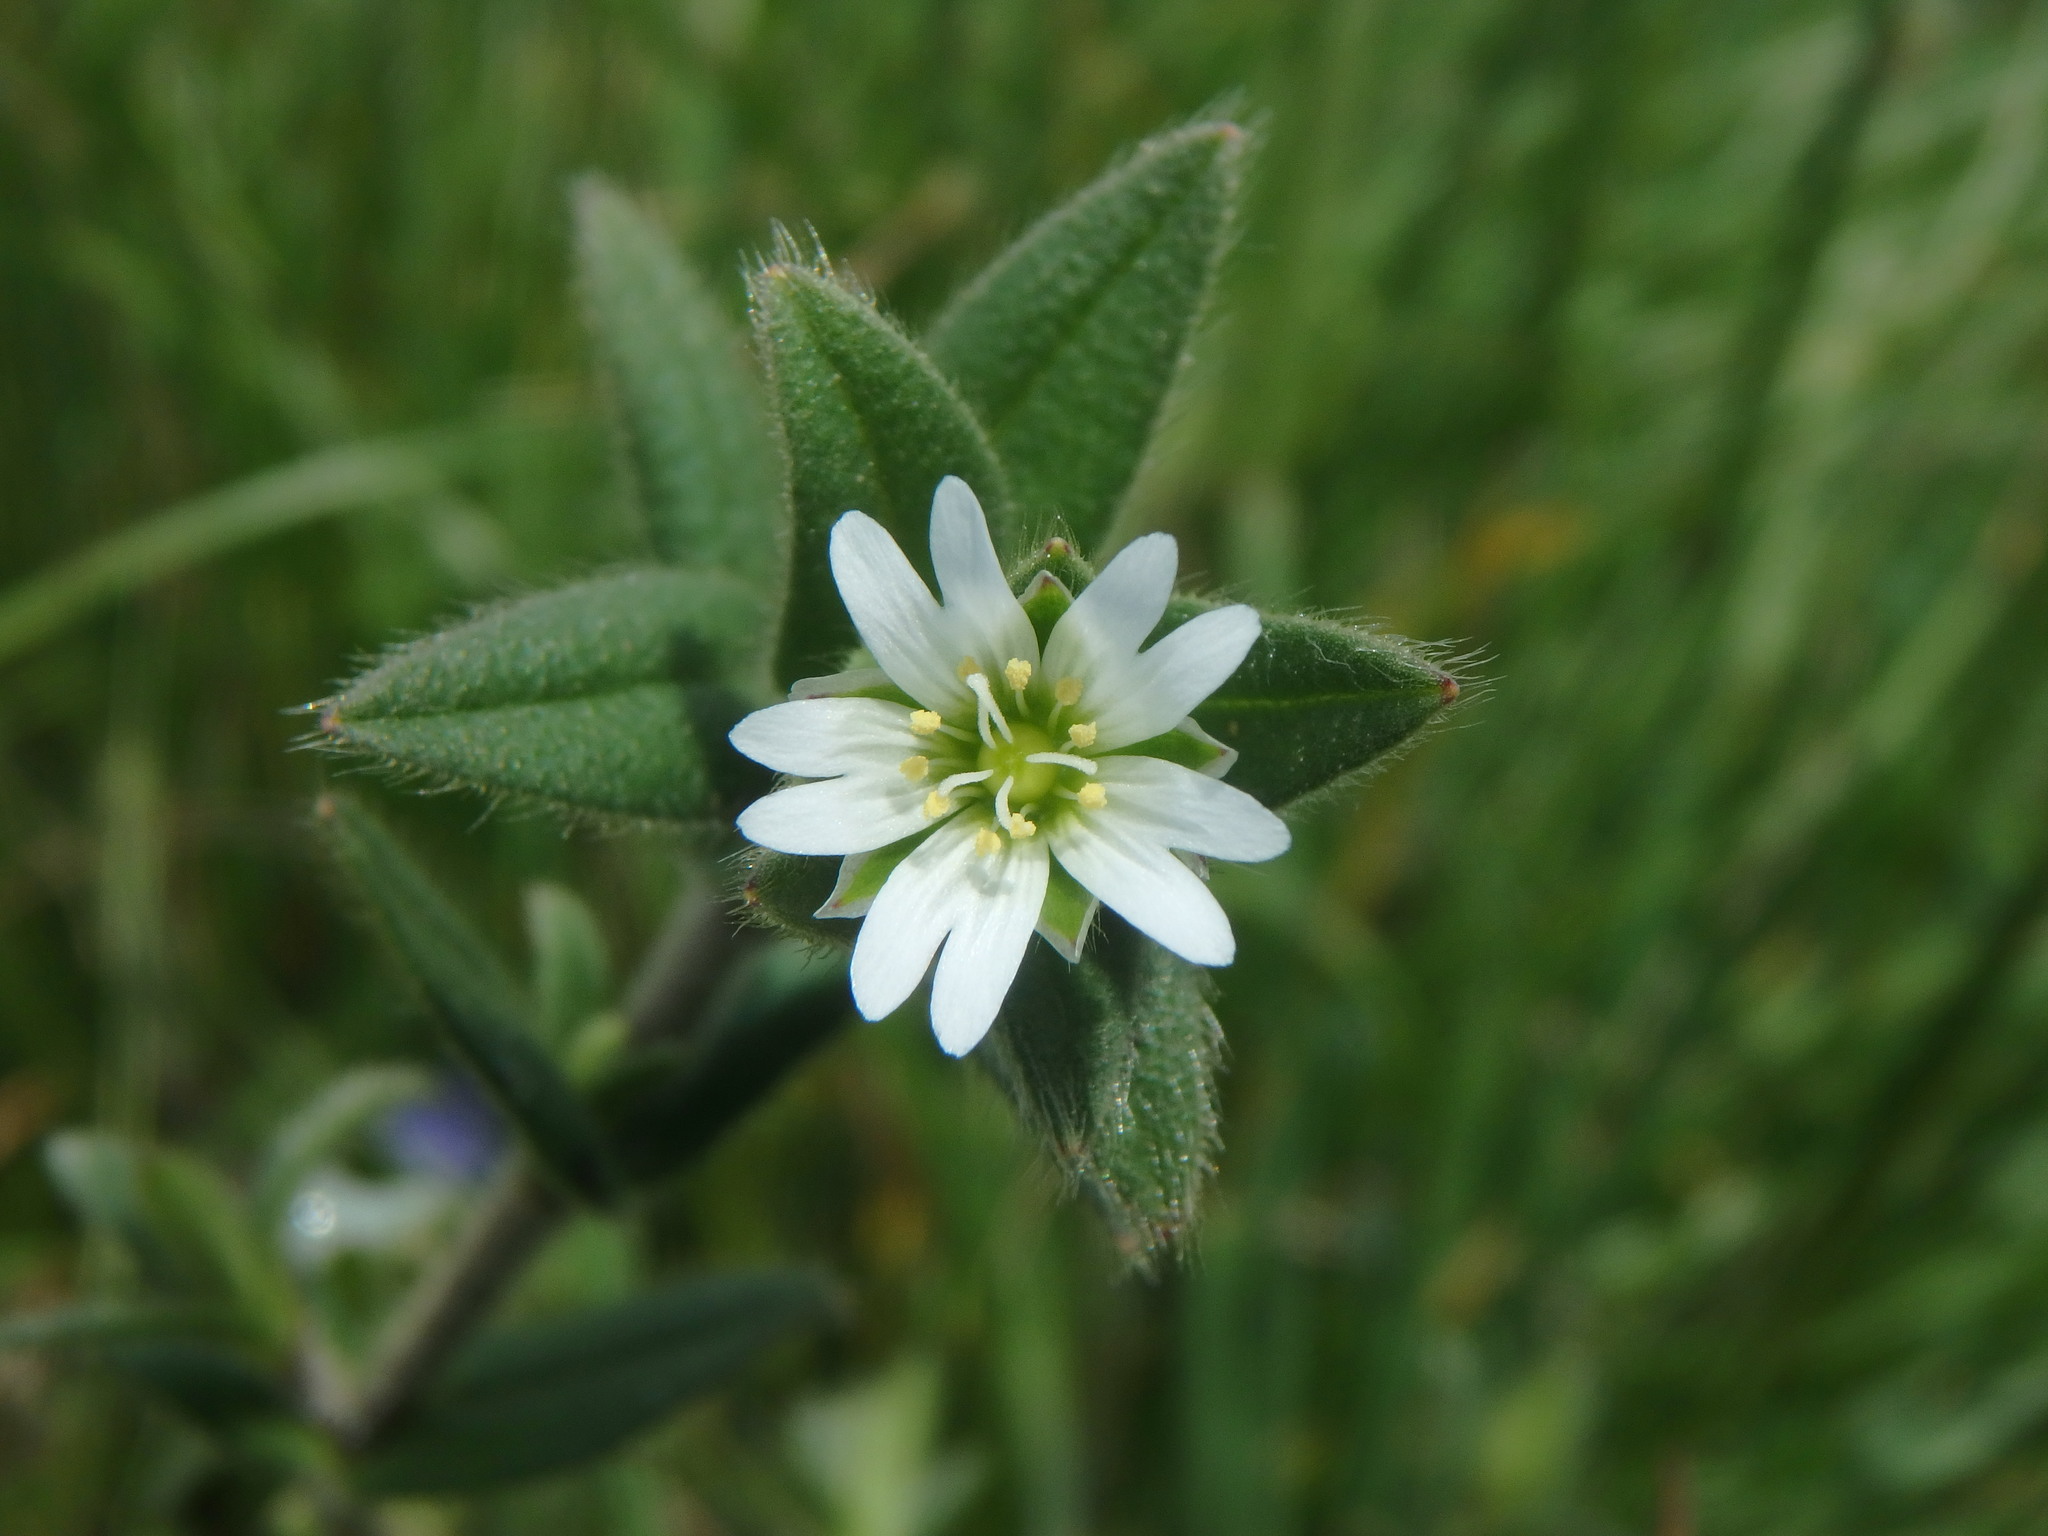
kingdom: Plantae
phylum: Tracheophyta
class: Magnoliopsida
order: Caryophyllales
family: Caryophyllaceae
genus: Cerastium
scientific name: Cerastium fontanum
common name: Common mouse-ear
